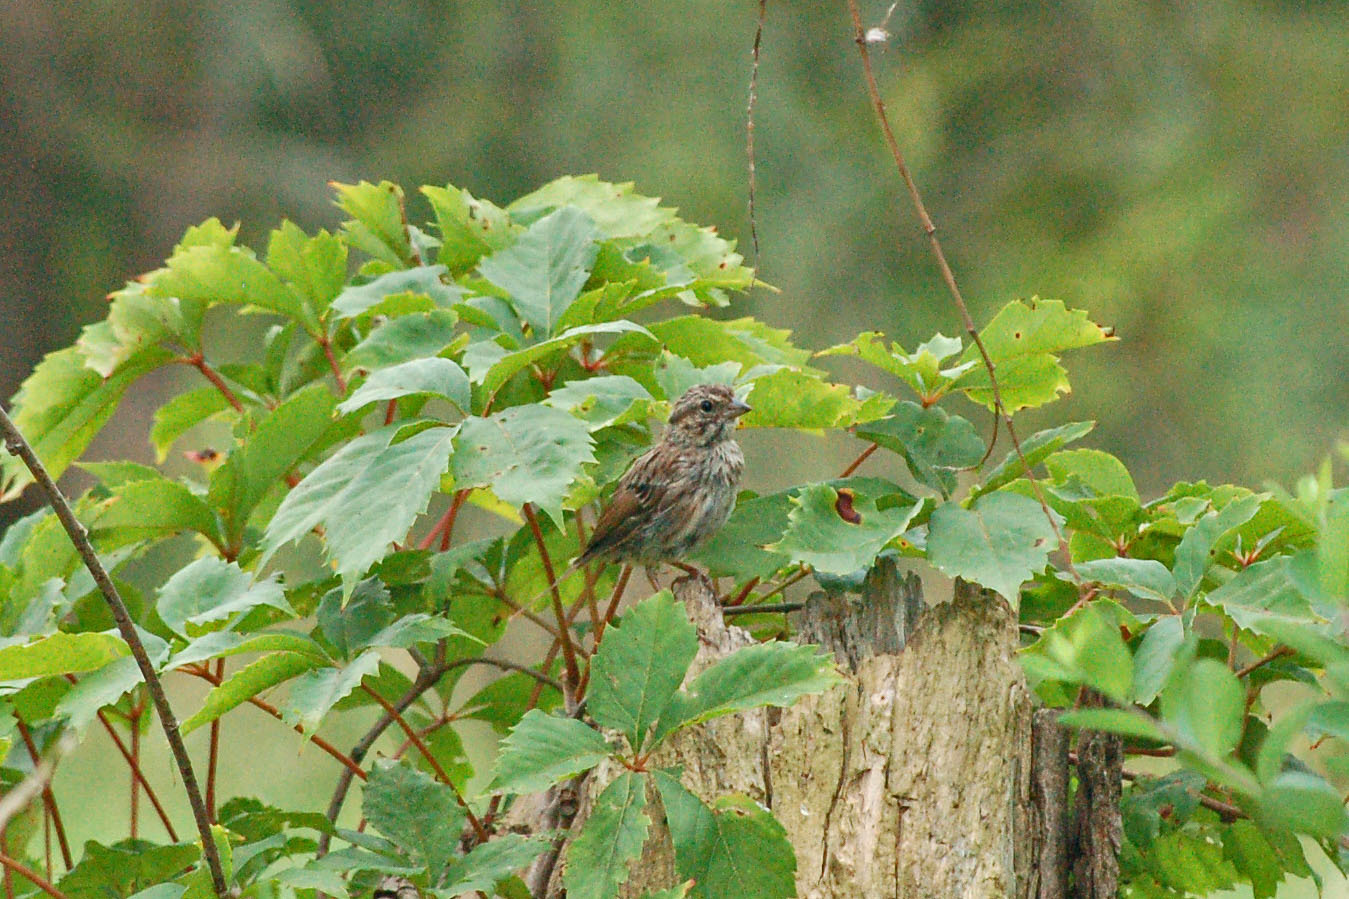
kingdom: Animalia
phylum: Chordata
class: Aves
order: Passeriformes
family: Passerellidae
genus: Melospiza
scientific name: Melospiza melodia
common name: Song sparrow
